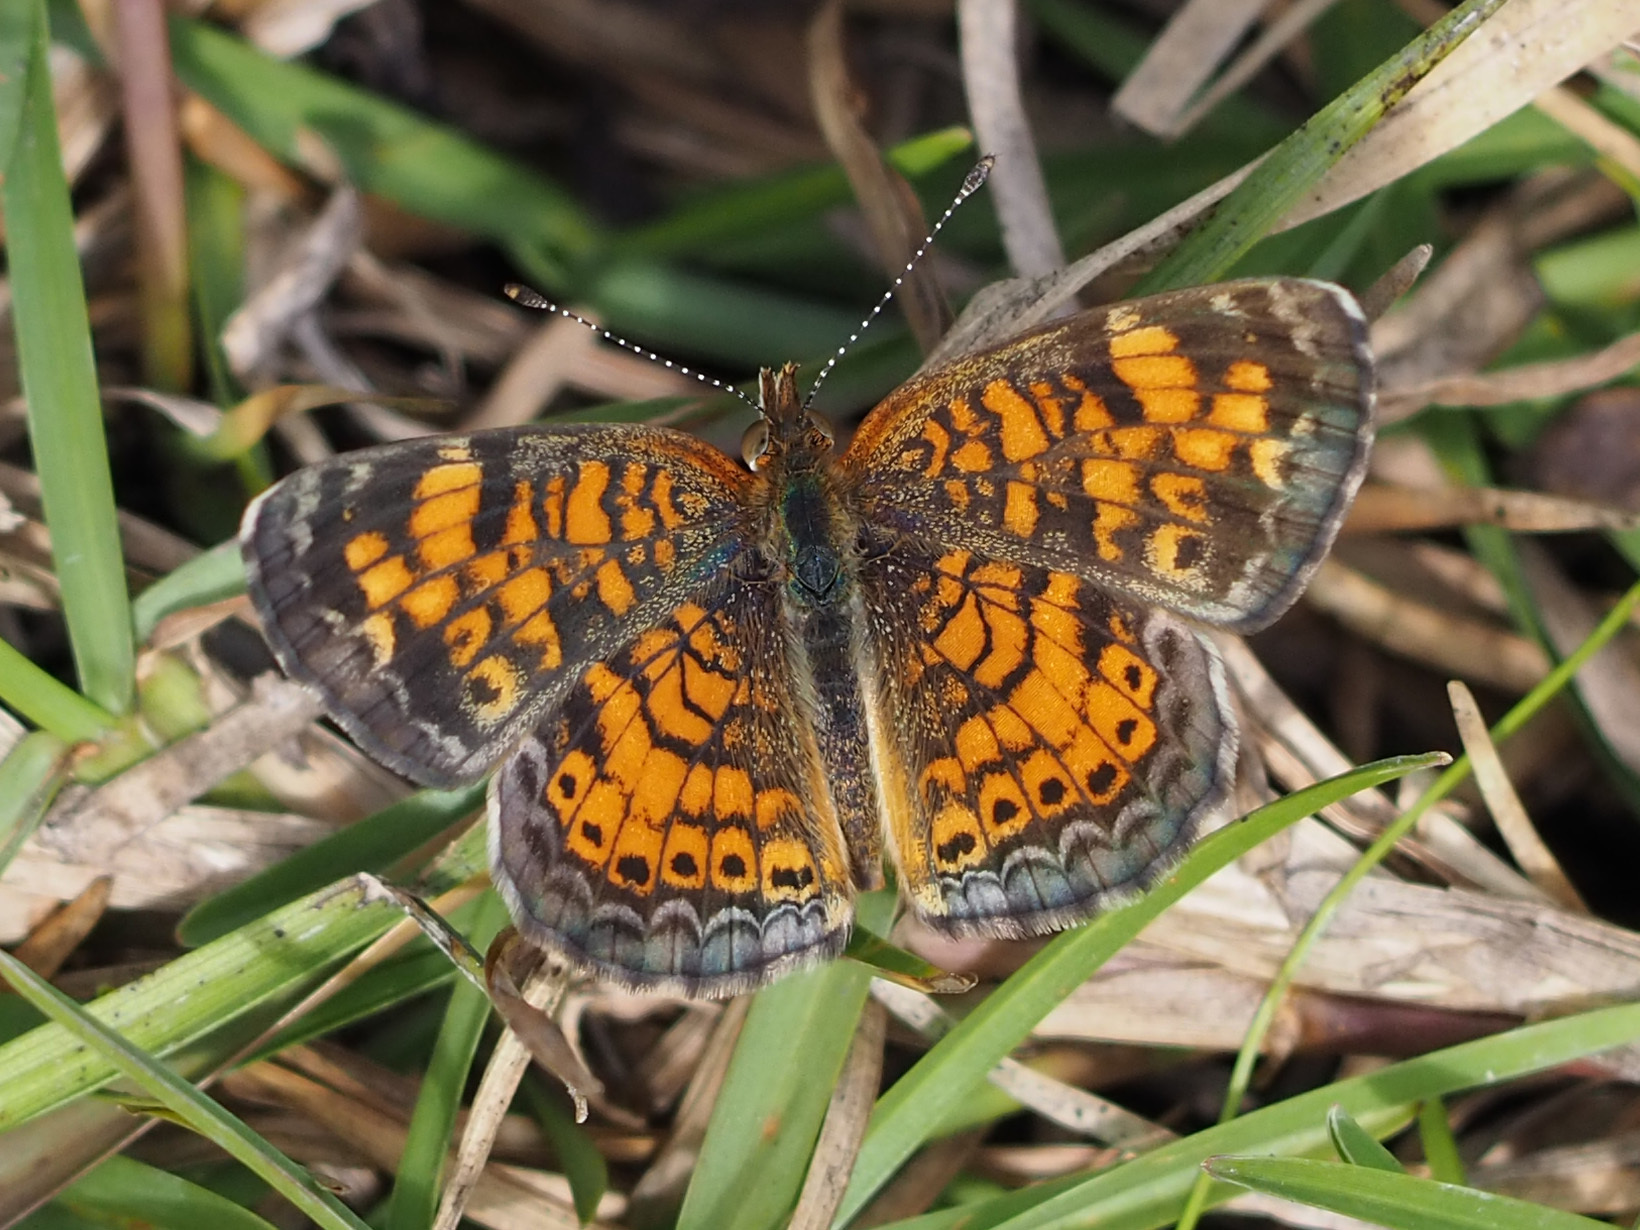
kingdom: Animalia
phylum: Arthropoda
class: Insecta
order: Lepidoptera
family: Nymphalidae
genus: Phyciodes
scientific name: Phyciodes tharos
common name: Pearl crescent
